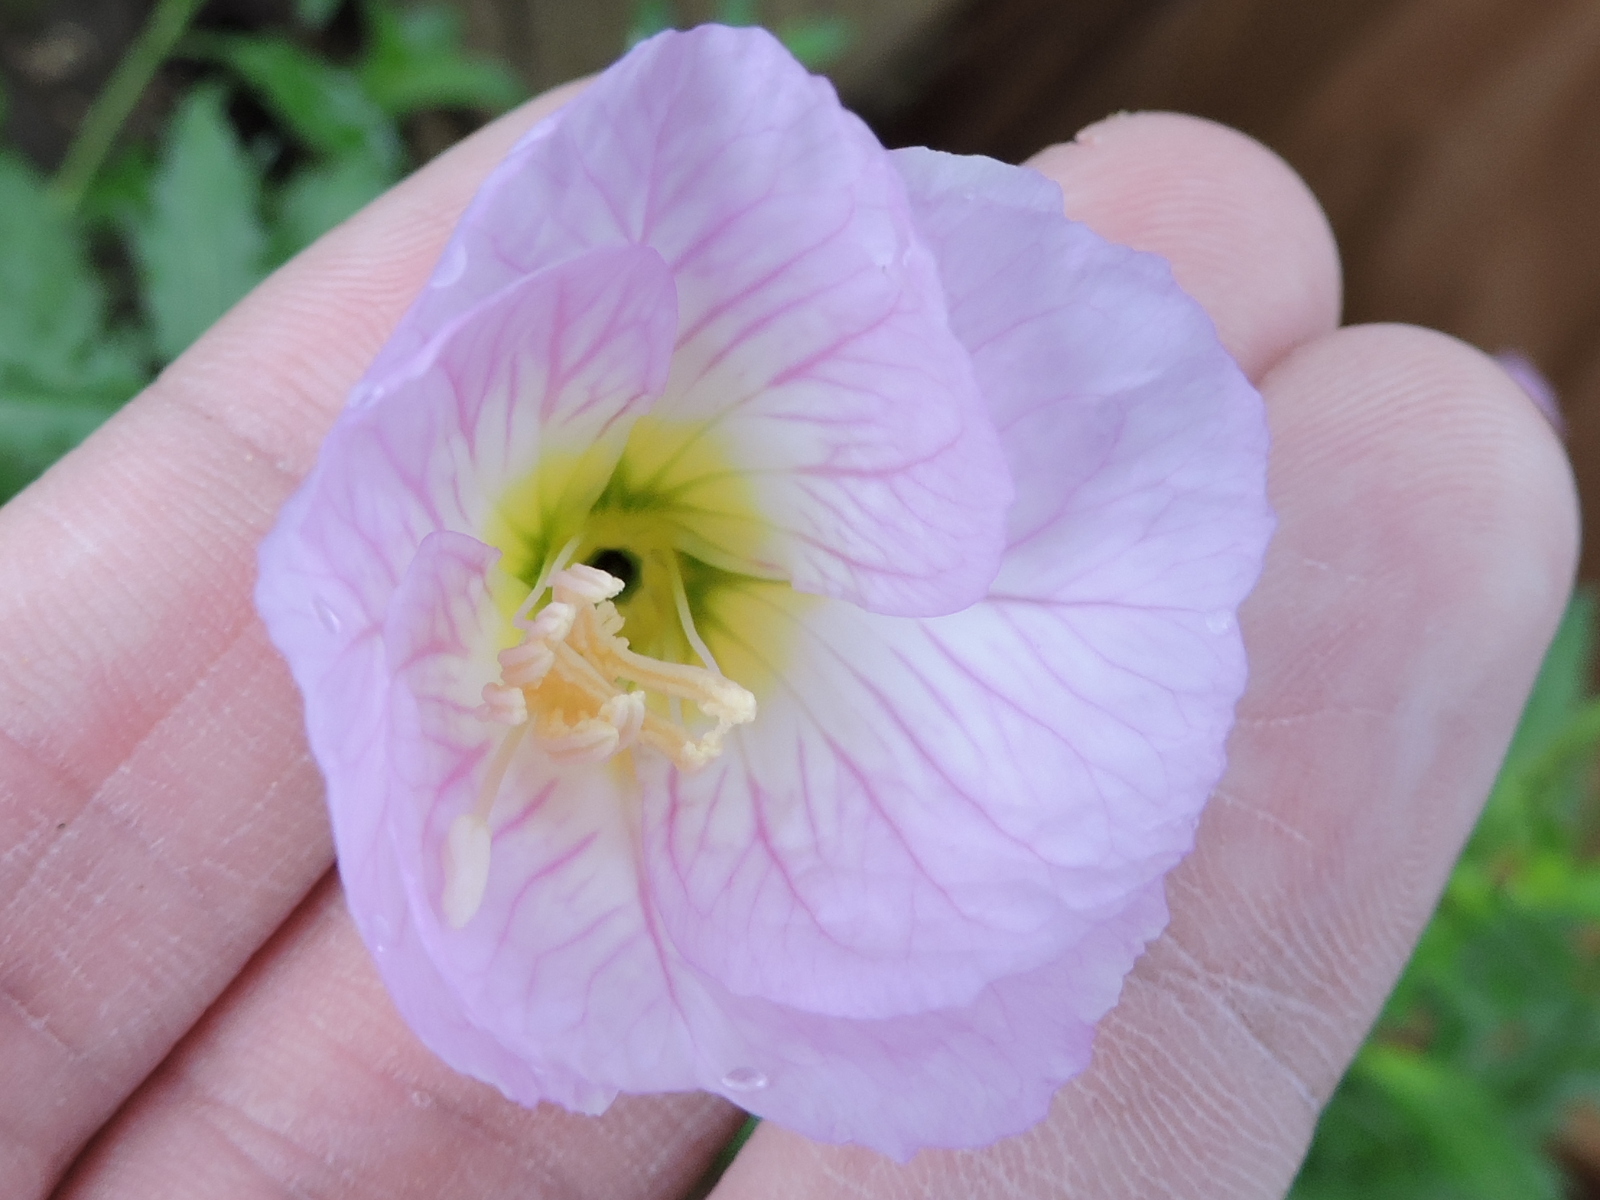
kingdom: Plantae
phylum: Tracheophyta
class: Magnoliopsida
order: Myrtales
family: Onagraceae
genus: Oenothera
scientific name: Oenothera speciosa
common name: White evening-primrose
